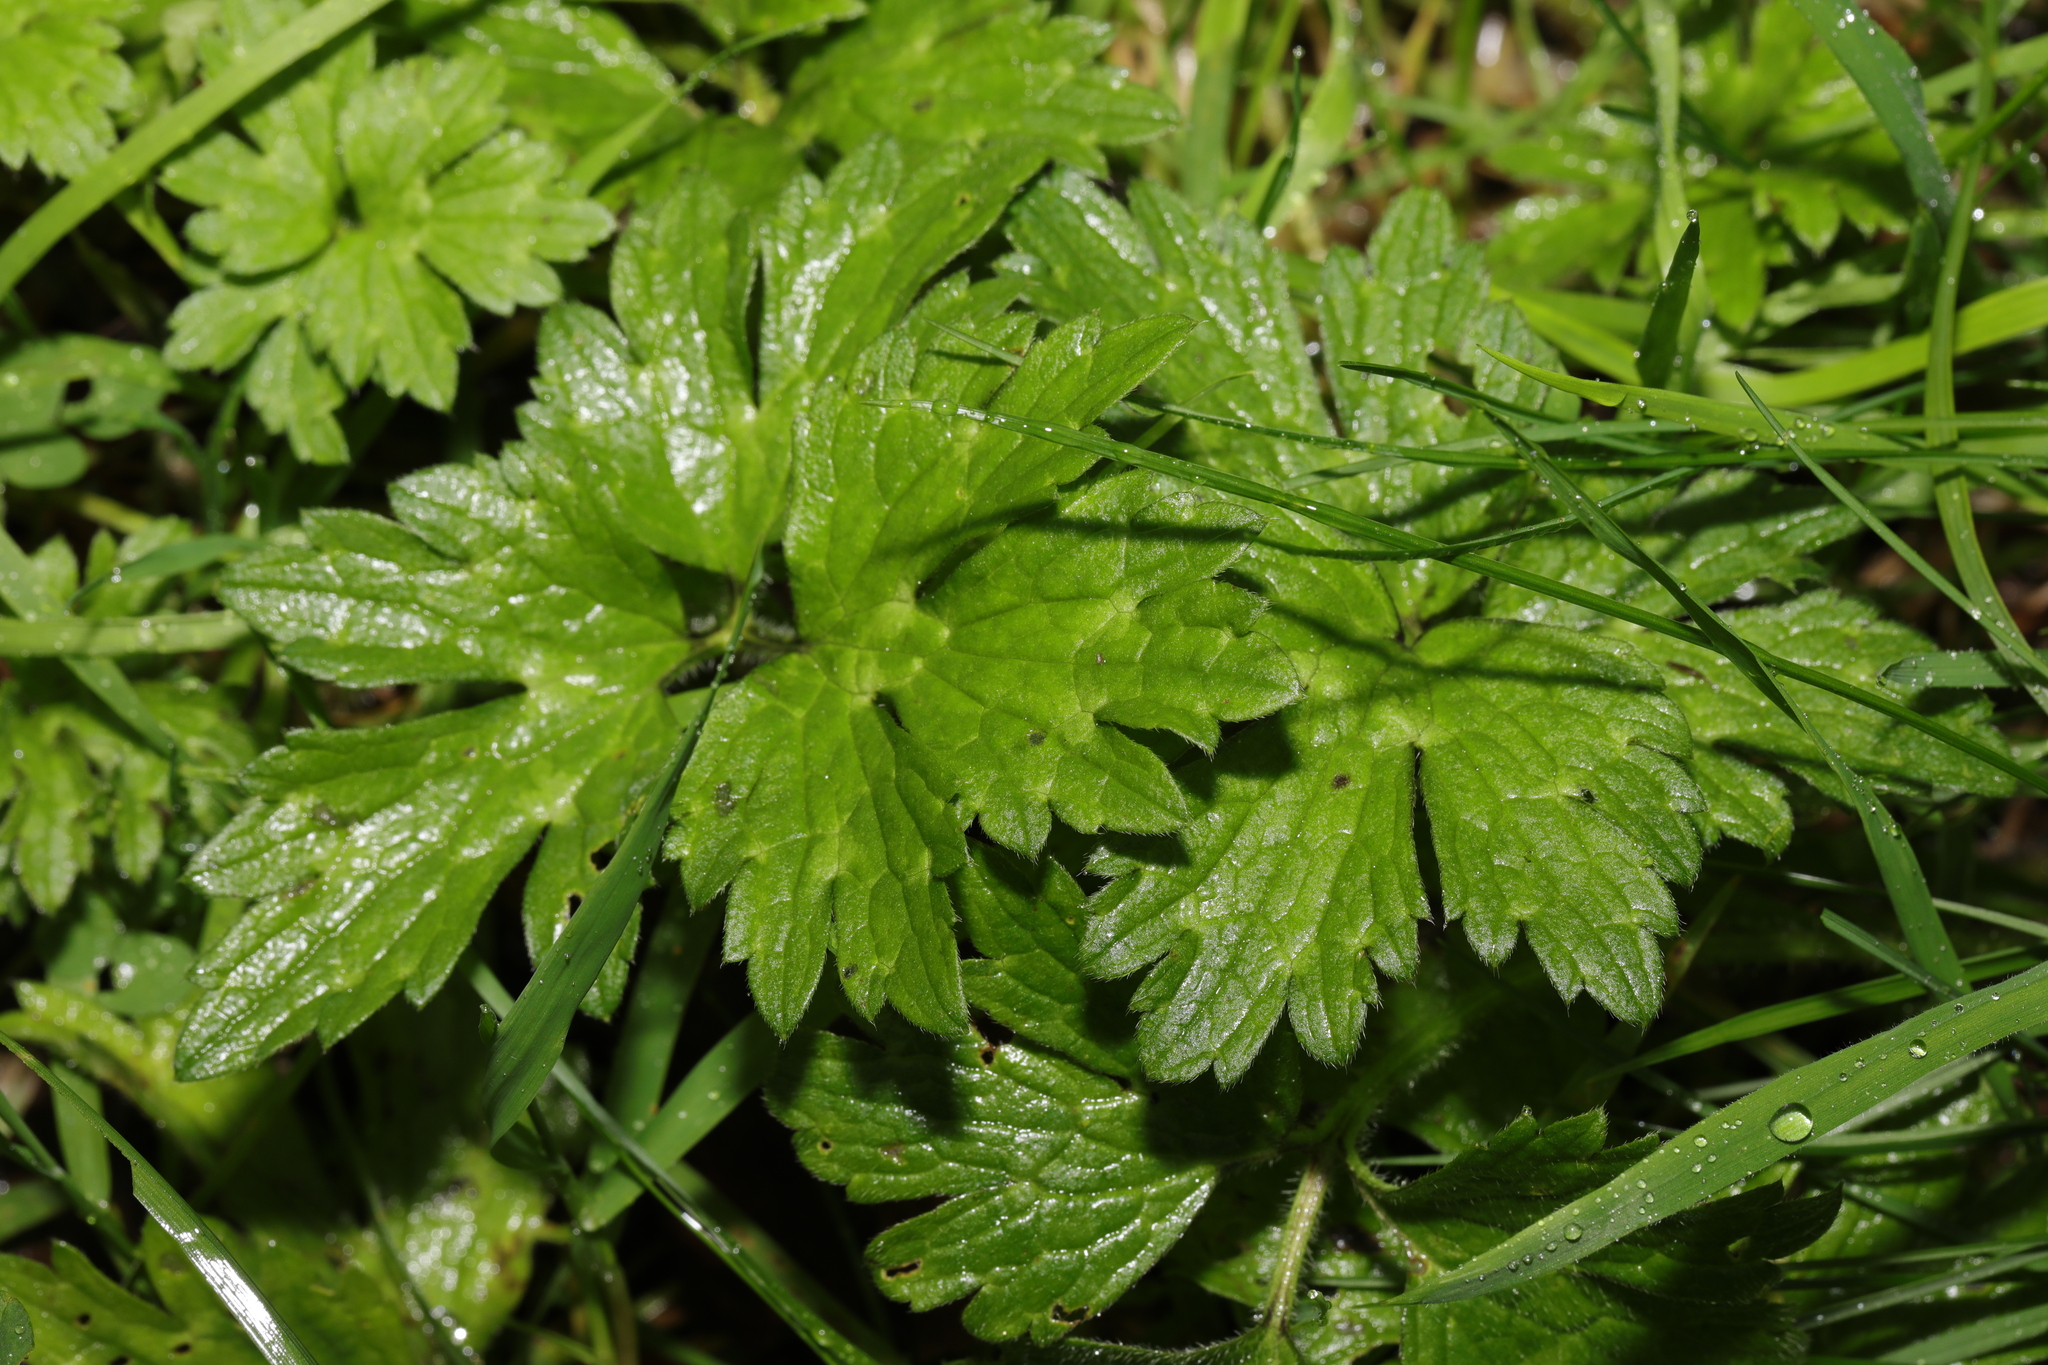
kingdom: Plantae
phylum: Tracheophyta
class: Magnoliopsida
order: Ranunculales
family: Ranunculaceae
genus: Ranunculus
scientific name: Ranunculus repens
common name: Creeping buttercup
